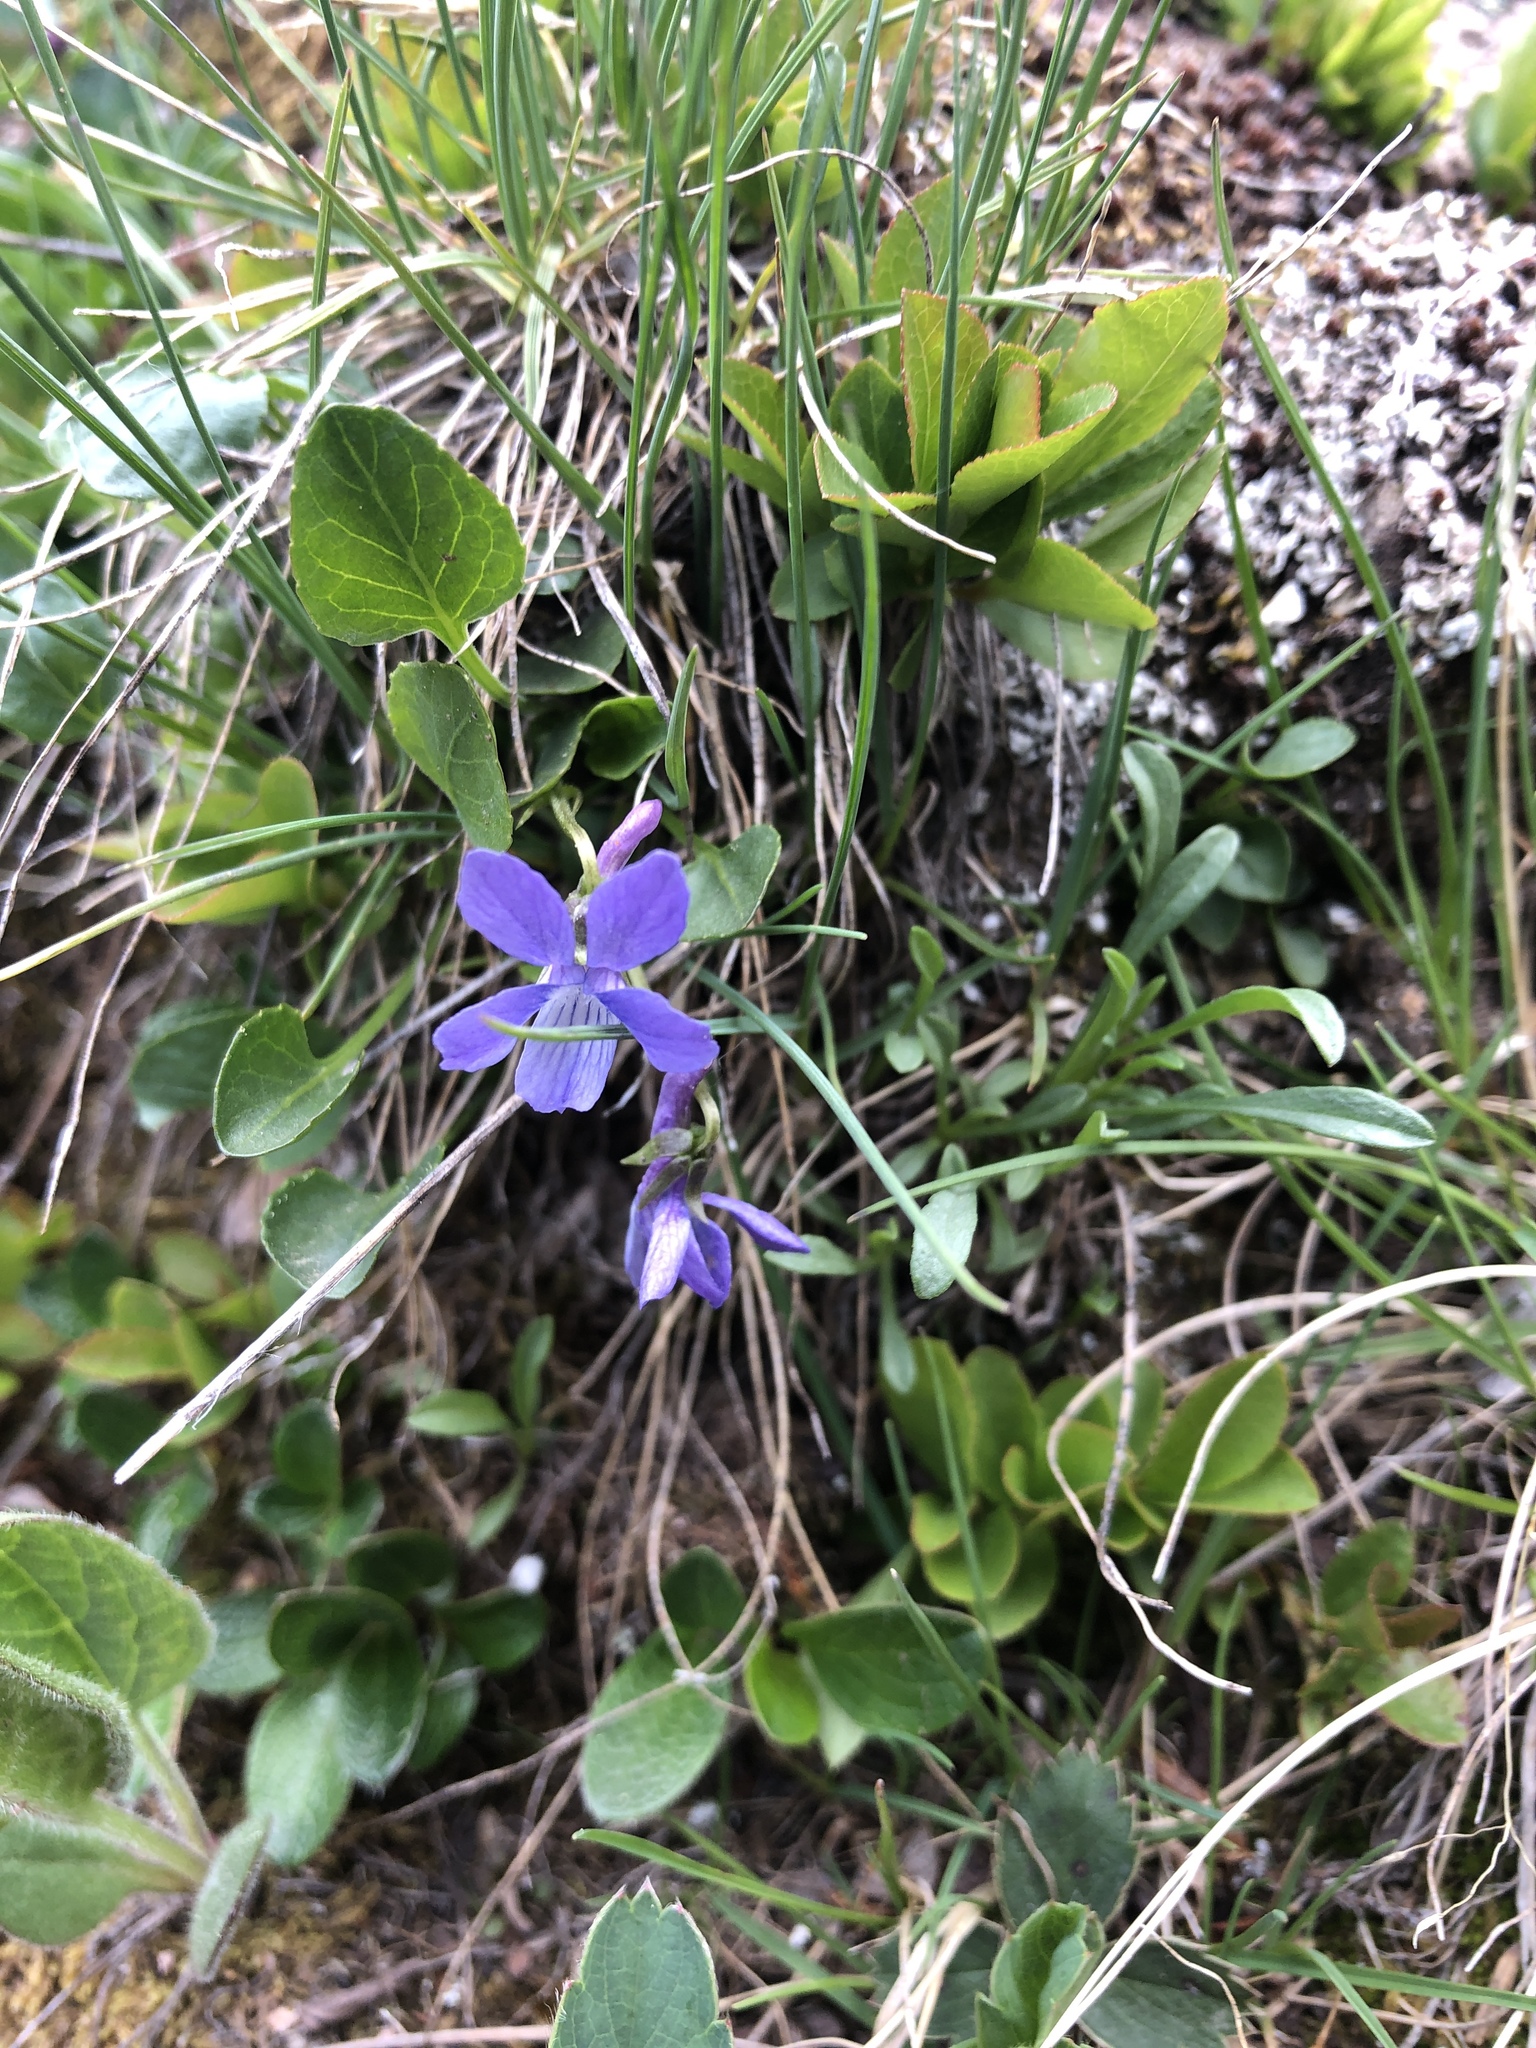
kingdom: Plantae
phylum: Tracheophyta
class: Magnoliopsida
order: Malpighiales
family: Violaceae
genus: Viola
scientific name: Viola adunca
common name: Sand violet
